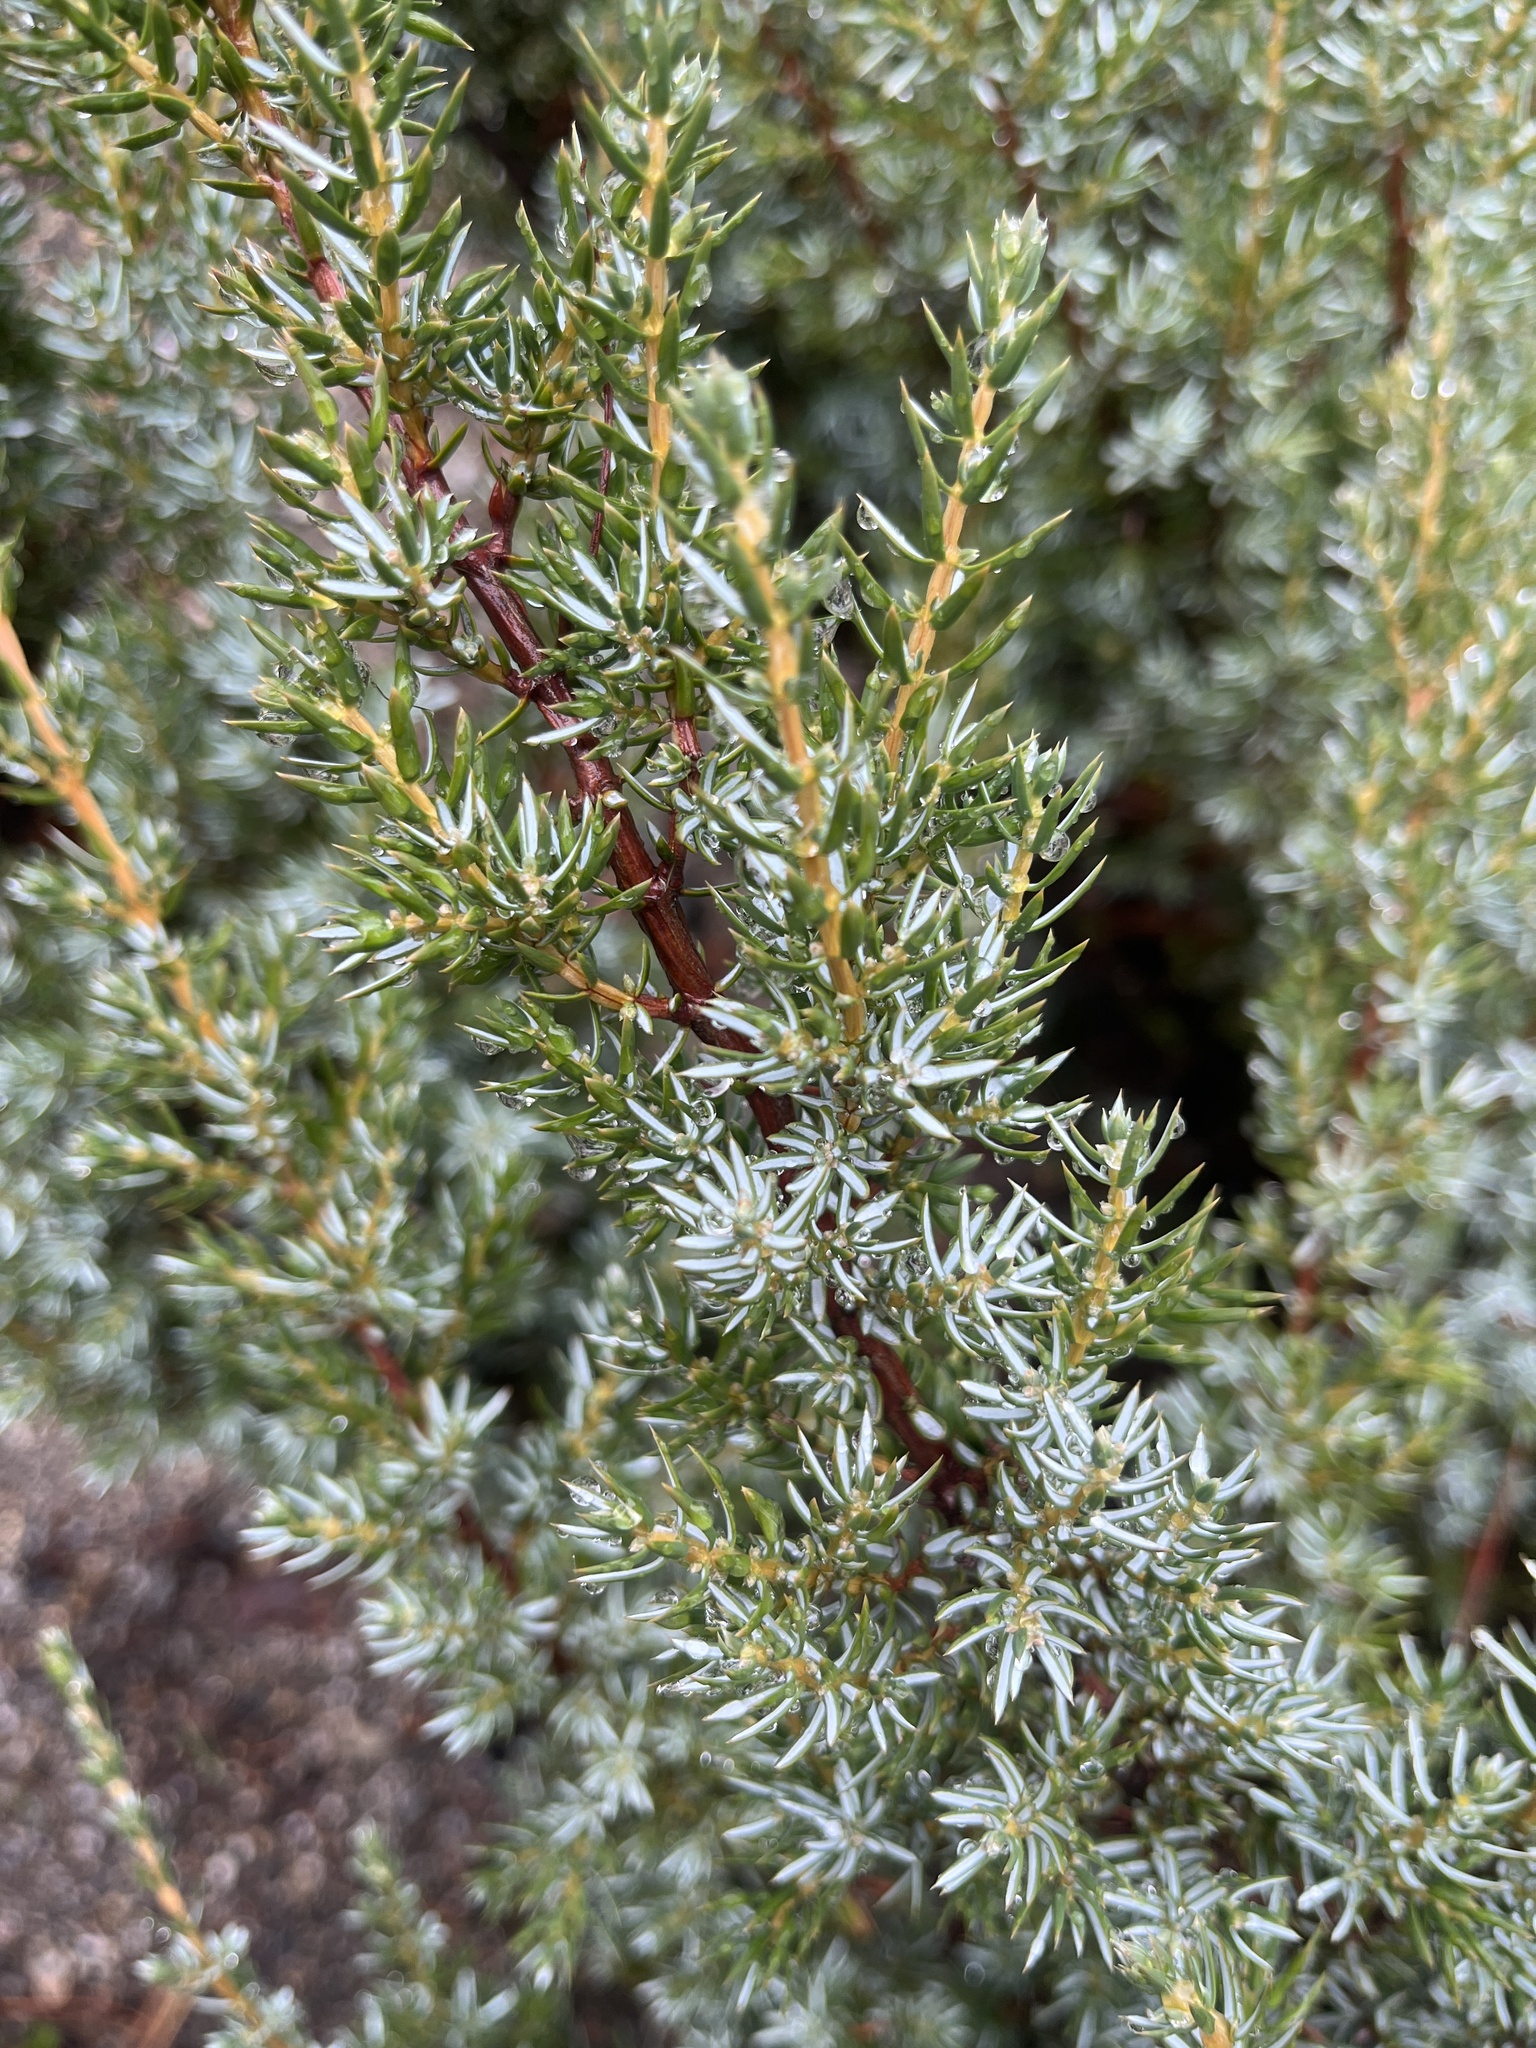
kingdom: Plantae
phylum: Tracheophyta
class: Pinopsida
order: Pinales
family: Cupressaceae
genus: Juniperus
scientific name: Juniperus communis
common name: Common juniper
